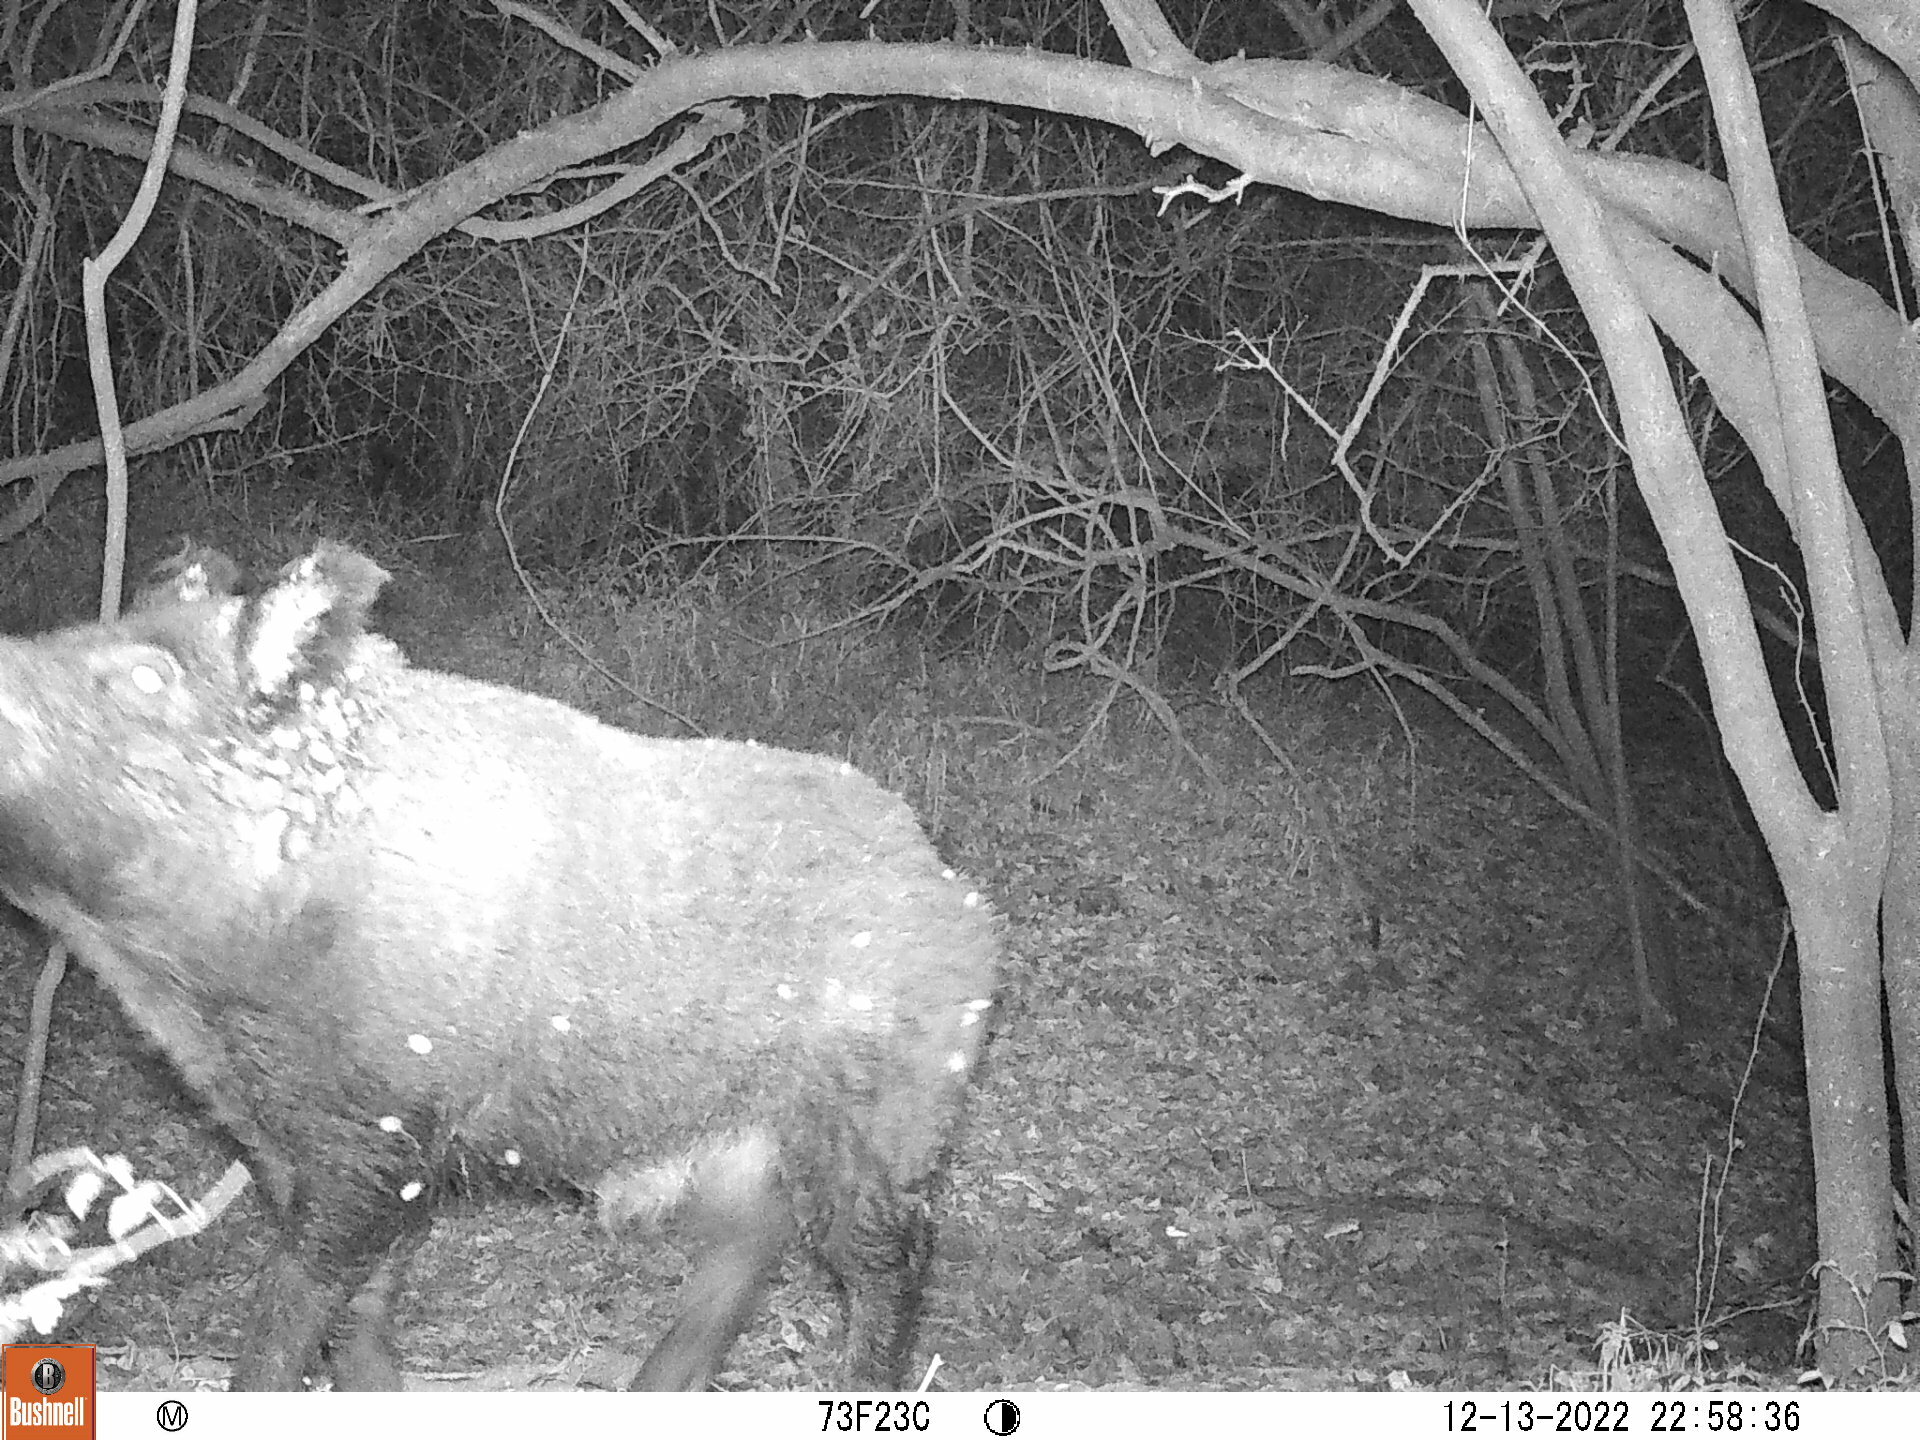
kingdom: Animalia
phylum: Chordata
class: Mammalia
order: Artiodactyla
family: Suidae
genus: Sus
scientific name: Sus scrofa
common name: Wild boar
